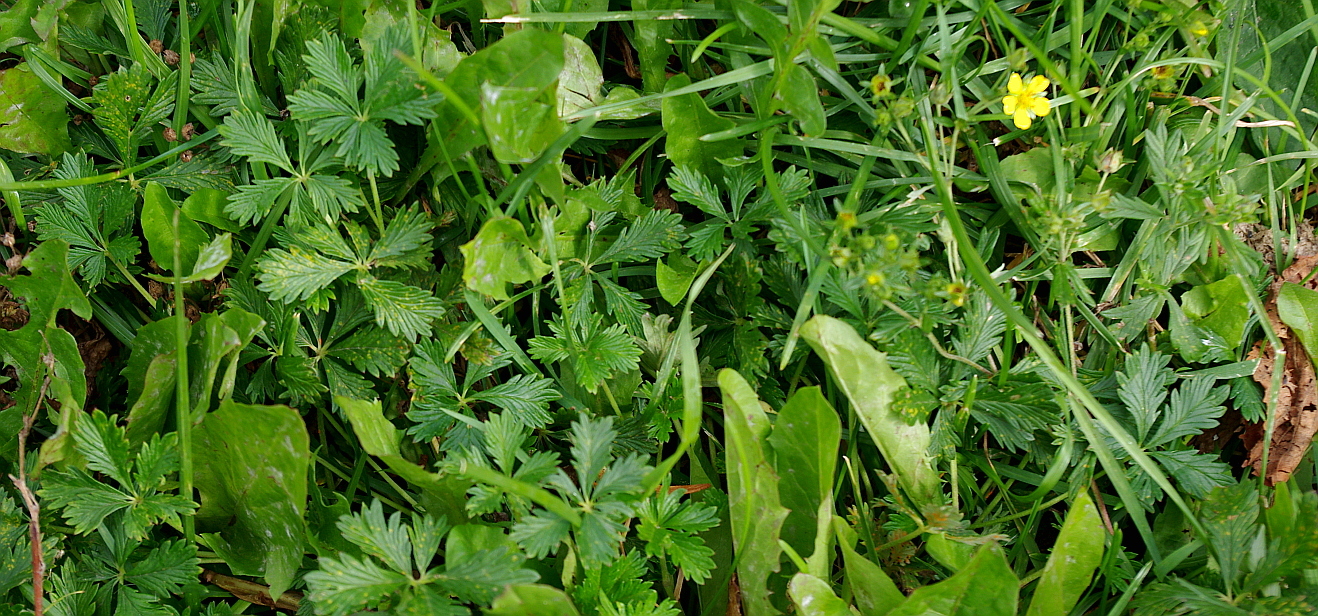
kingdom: Plantae
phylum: Tracheophyta
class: Magnoliopsida
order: Rosales
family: Rosaceae
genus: Potentilla
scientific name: Potentilla intermedia
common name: Downy cinquefoil
